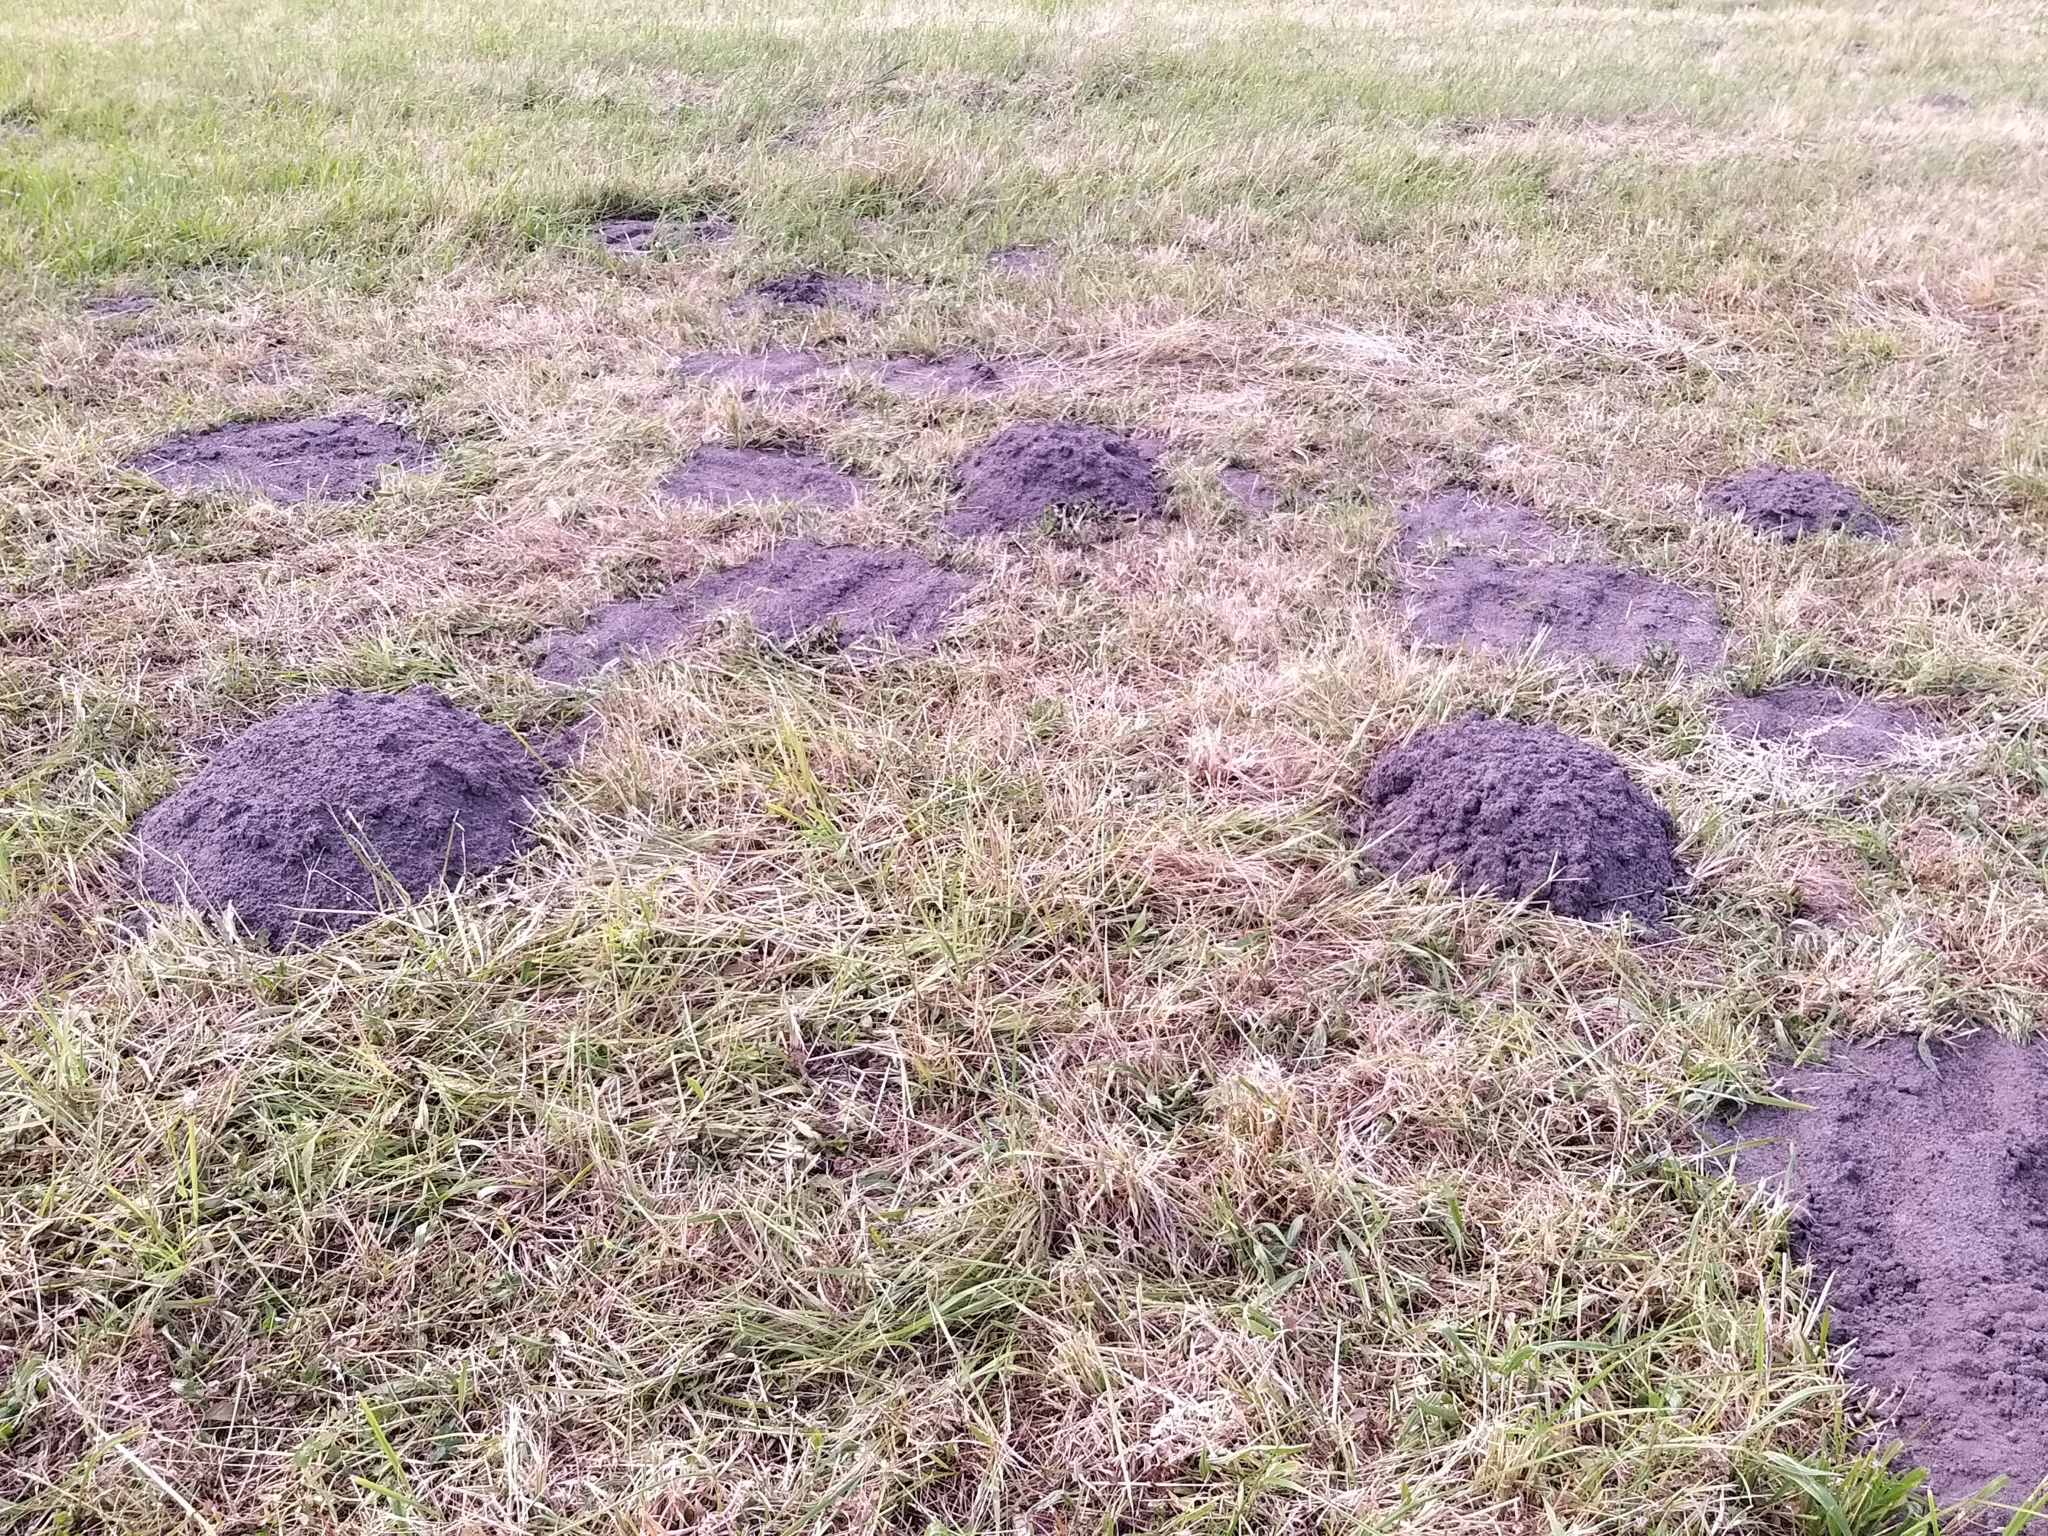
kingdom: Animalia
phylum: Chordata
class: Mammalia
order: Soricomorpha
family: Talpidae
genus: Talpa
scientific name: Talpa europaea
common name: European mole
